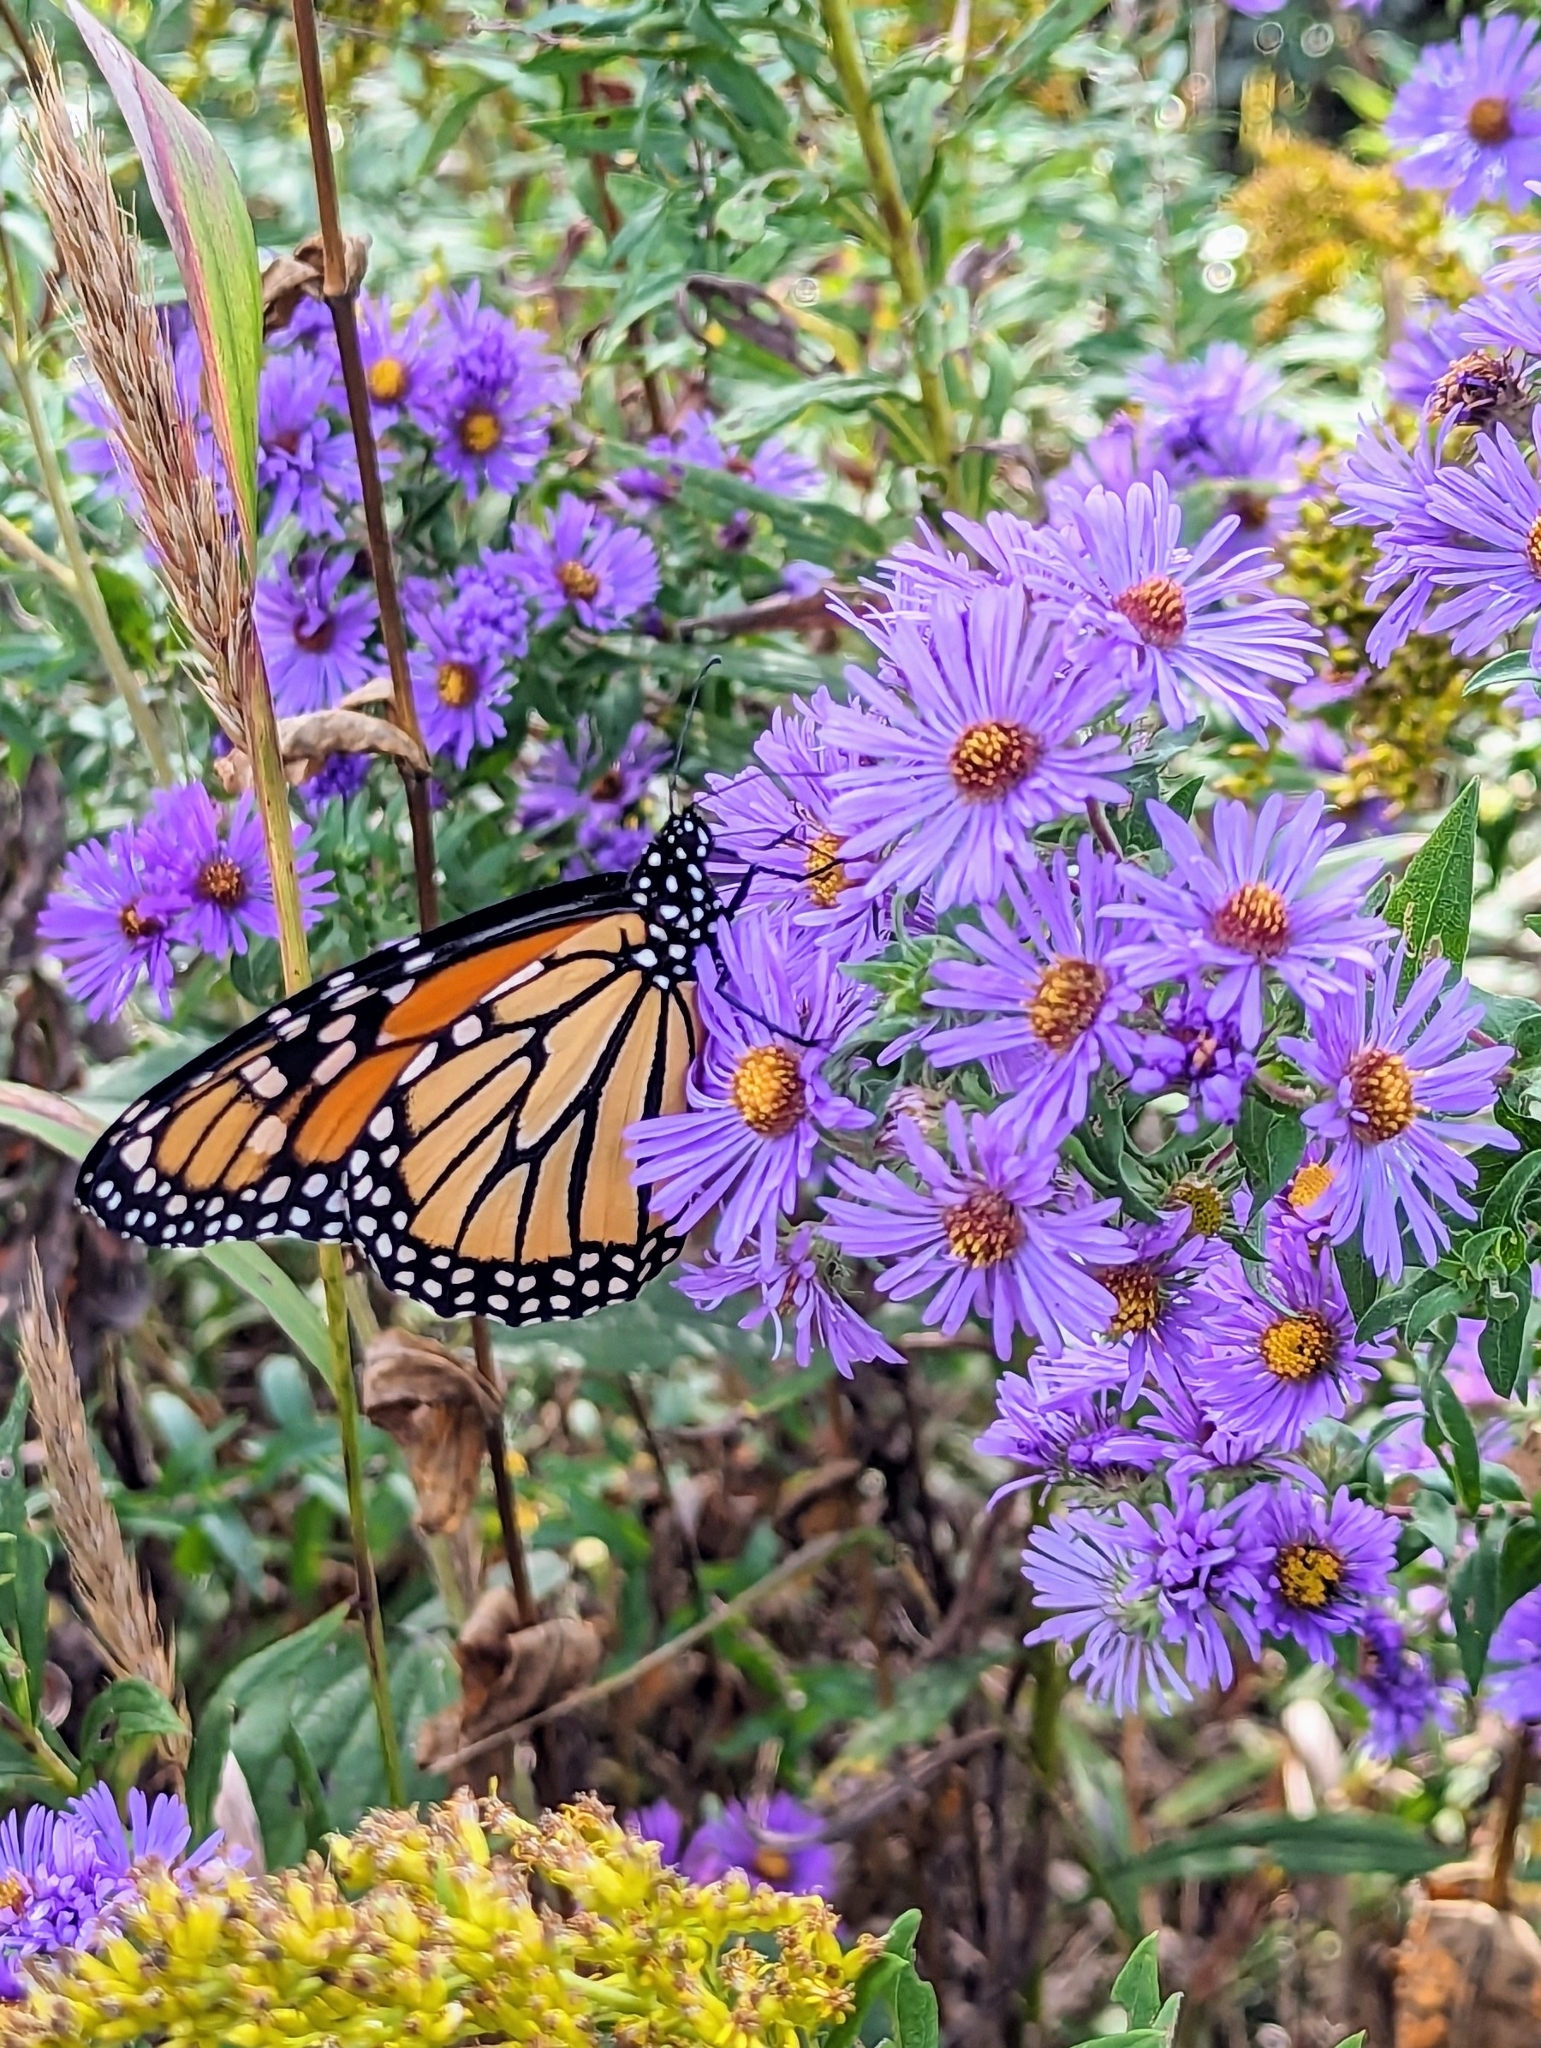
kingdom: Animalia
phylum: Arthropoda
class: Insecta
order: Lepidoptera
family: Nymphalidae
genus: Danaus
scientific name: Danaus plexippus
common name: Monarch
